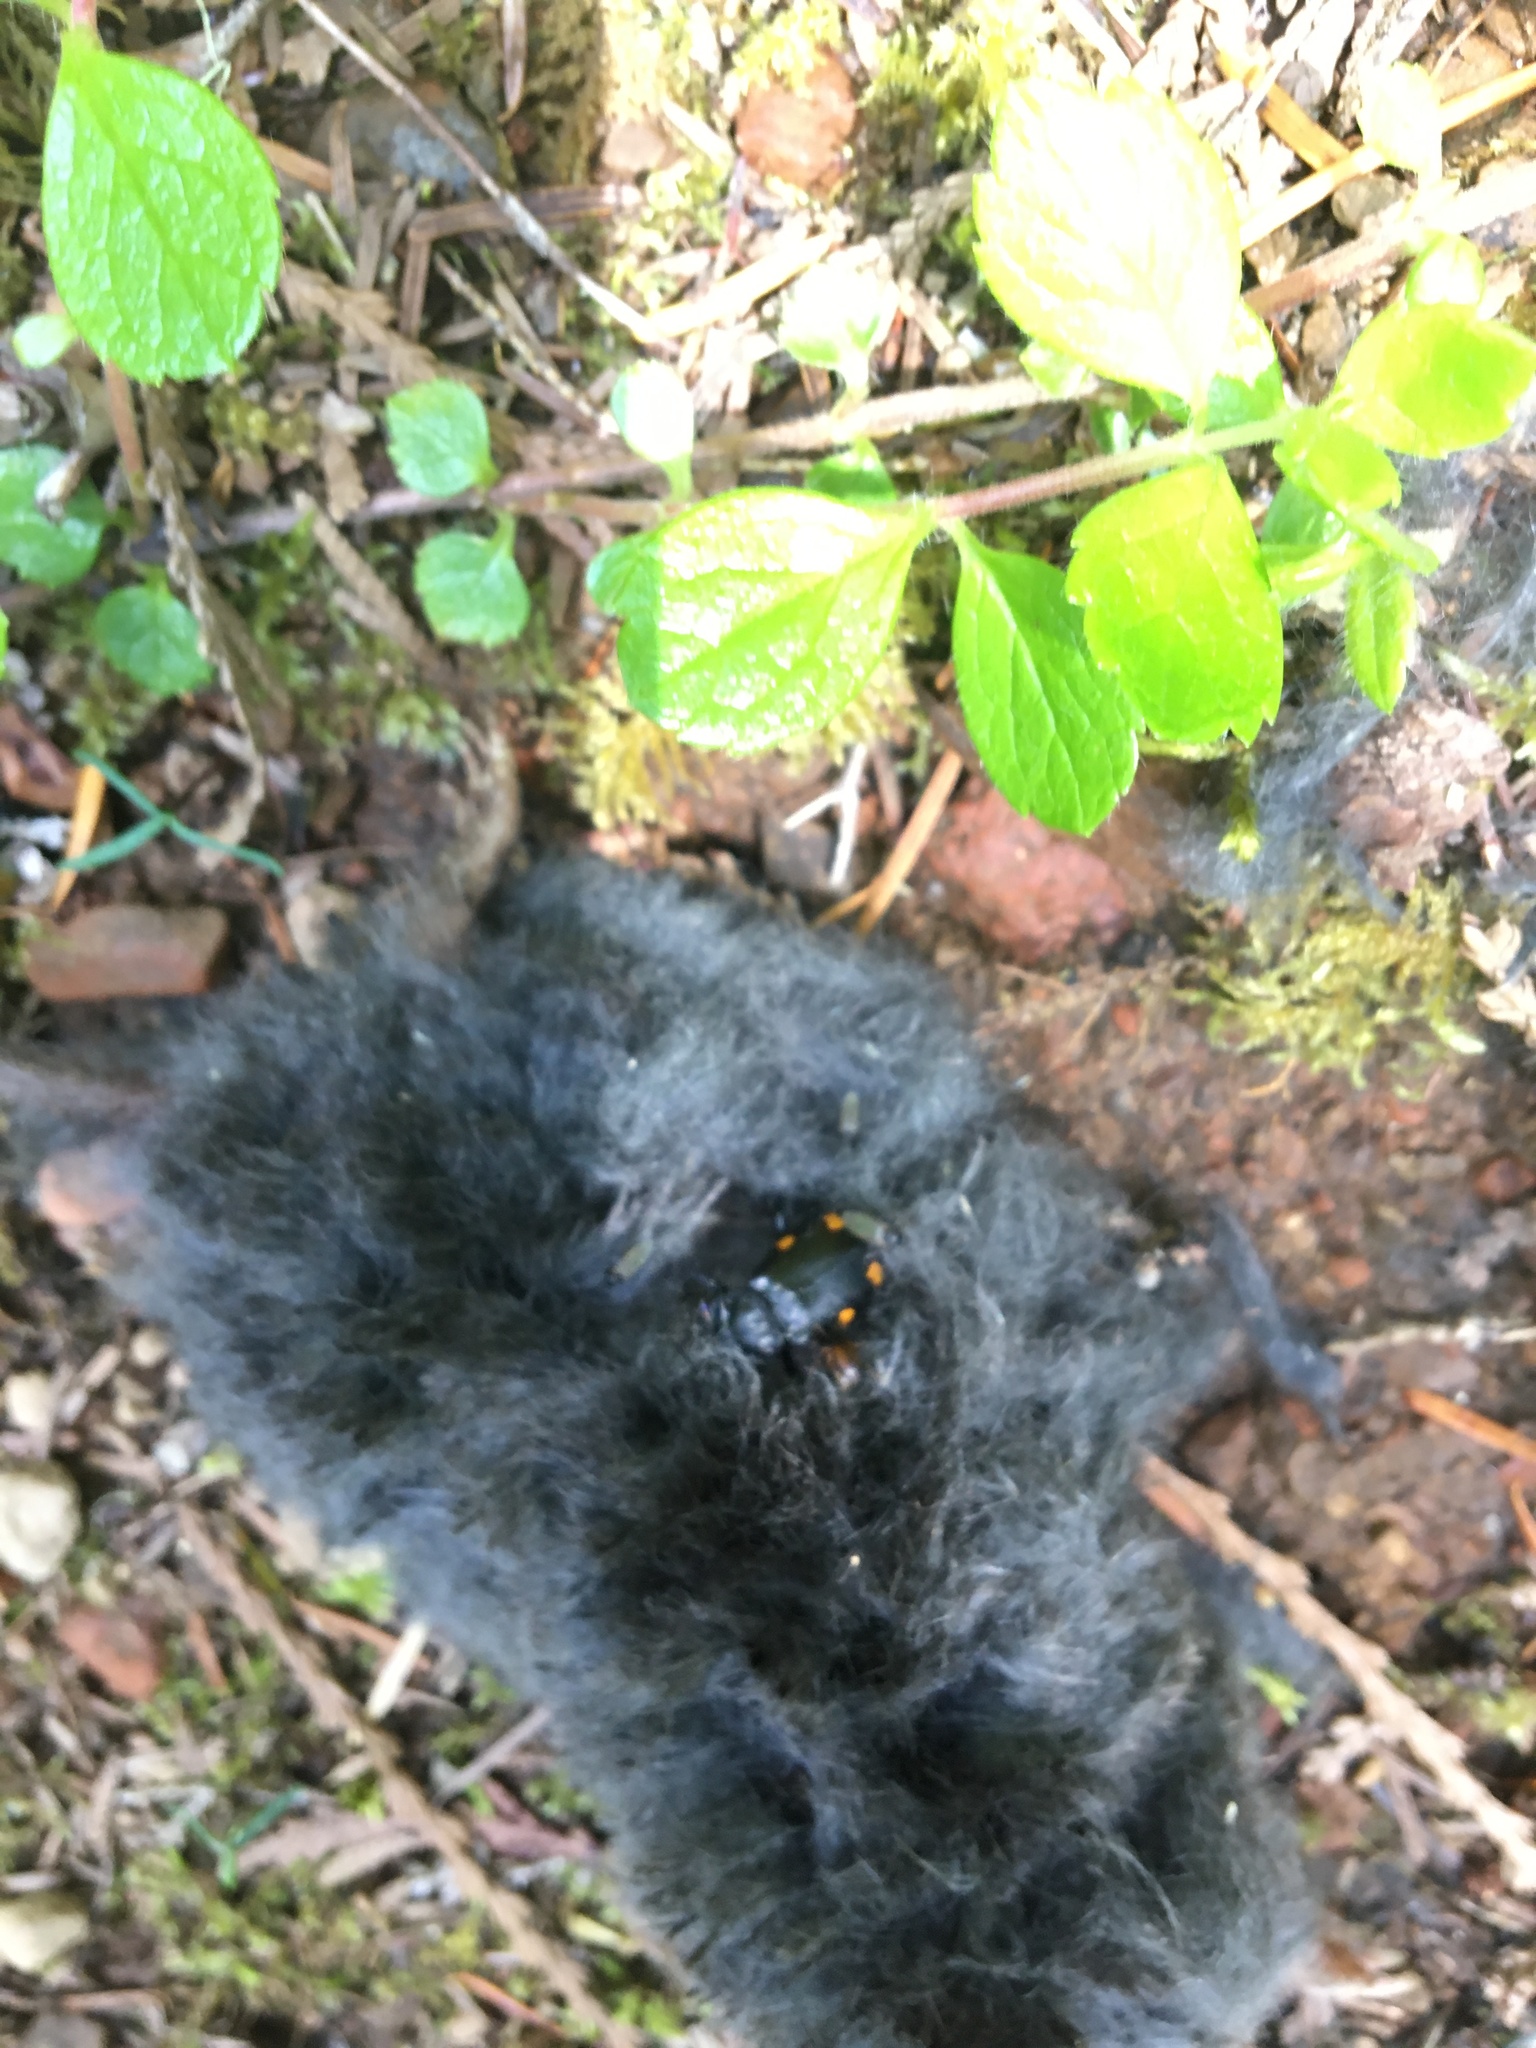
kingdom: Animalia
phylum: Arthropoda
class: Insecta
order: Coleoptera
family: Staphylinidae
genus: Nicrophorus
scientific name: Nicrophorus defodiens
